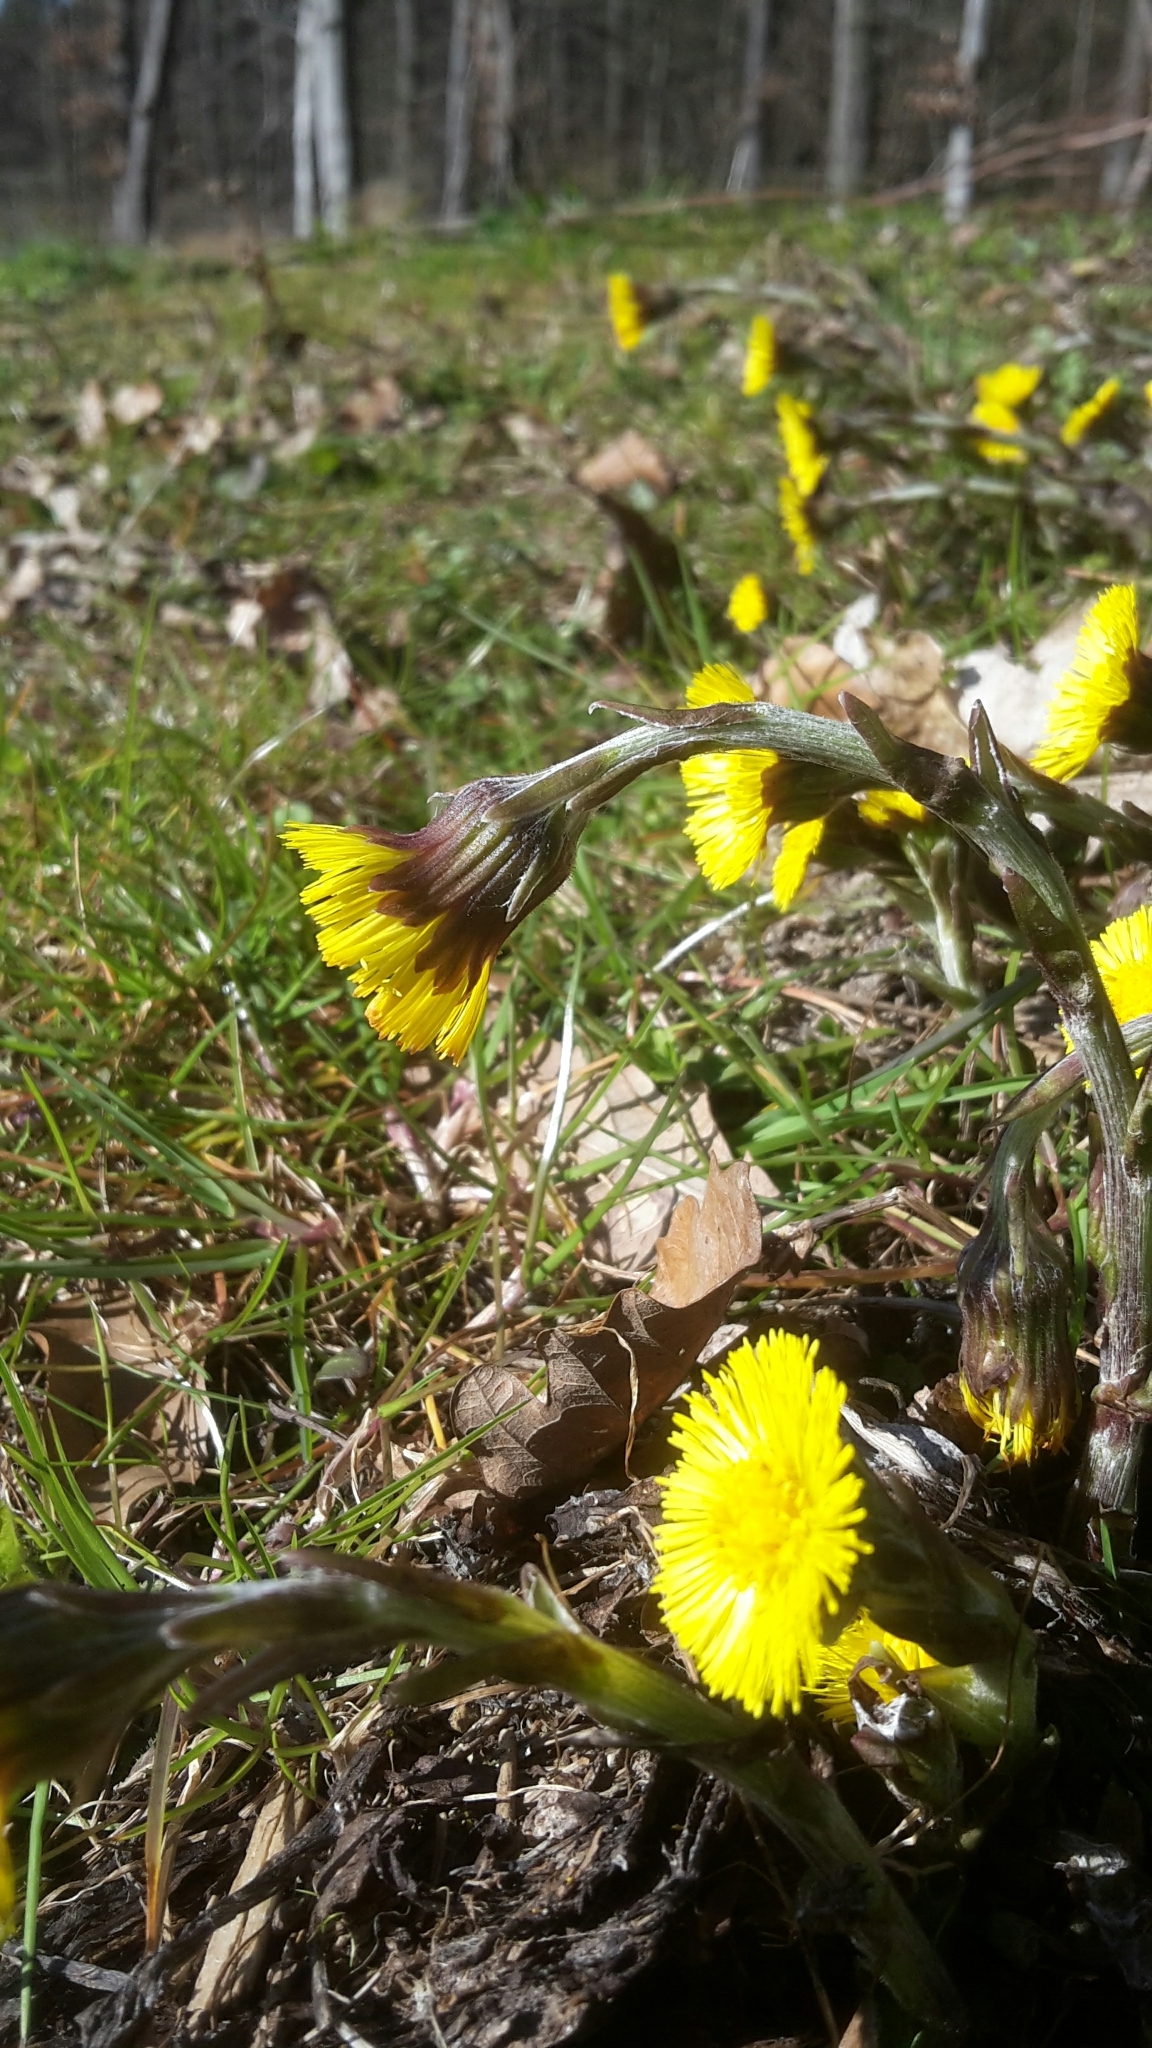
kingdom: Plantae
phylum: Tracheophyta
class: Magnoliopsida
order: Asterales
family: Asteraceae
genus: Tussilago
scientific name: Tussilago farfara
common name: Coltsfoot
